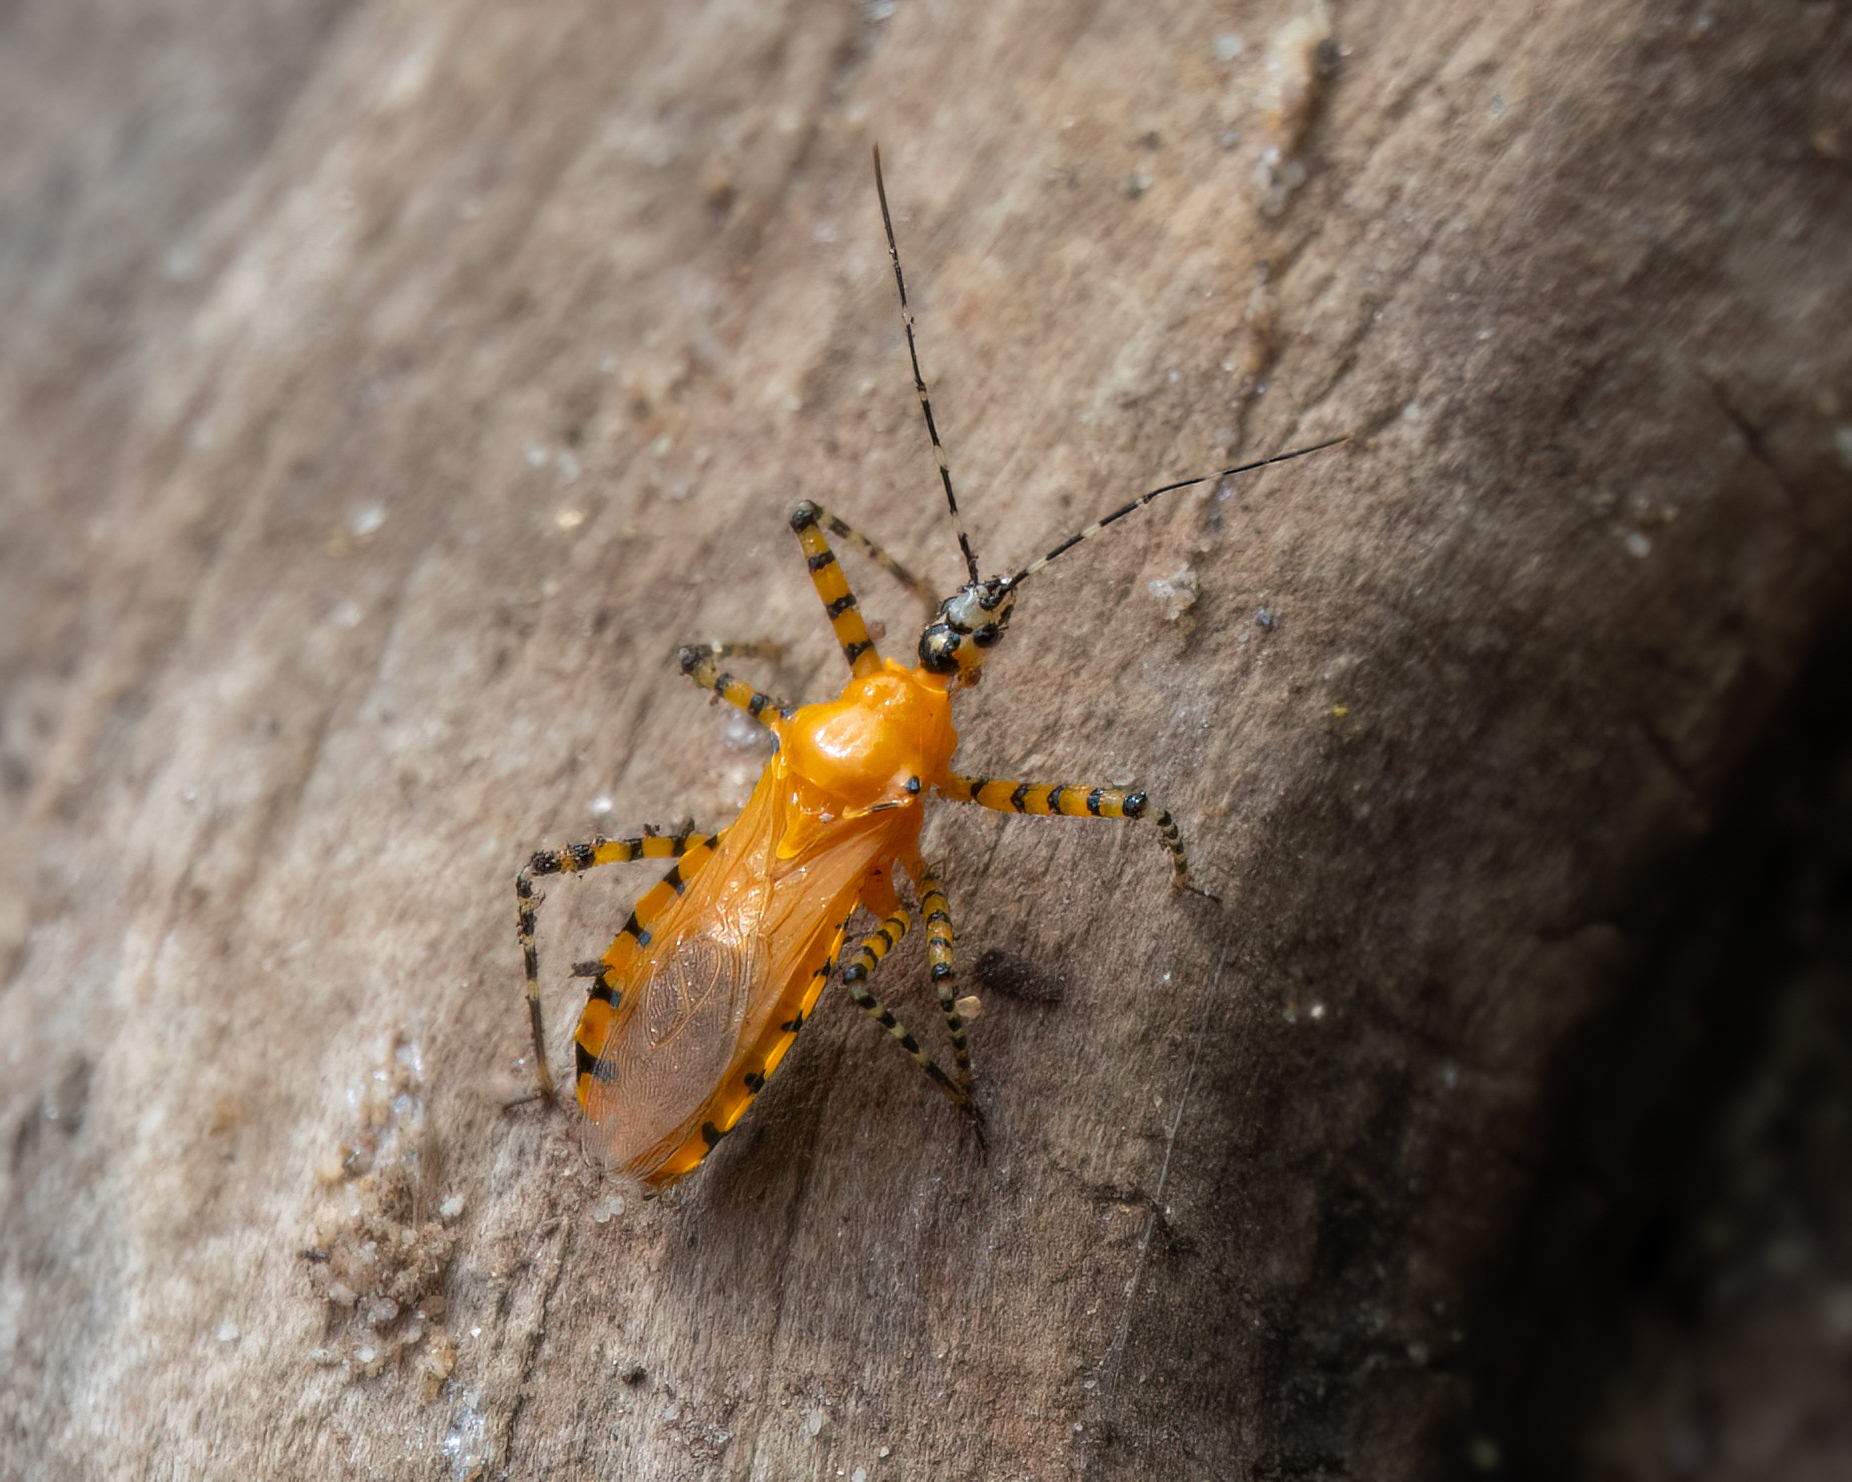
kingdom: Animalia
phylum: Arthropoda
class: Insecta
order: Hemiptera
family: Reduviidae
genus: Pselliopus
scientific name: Pselliopus barberi
